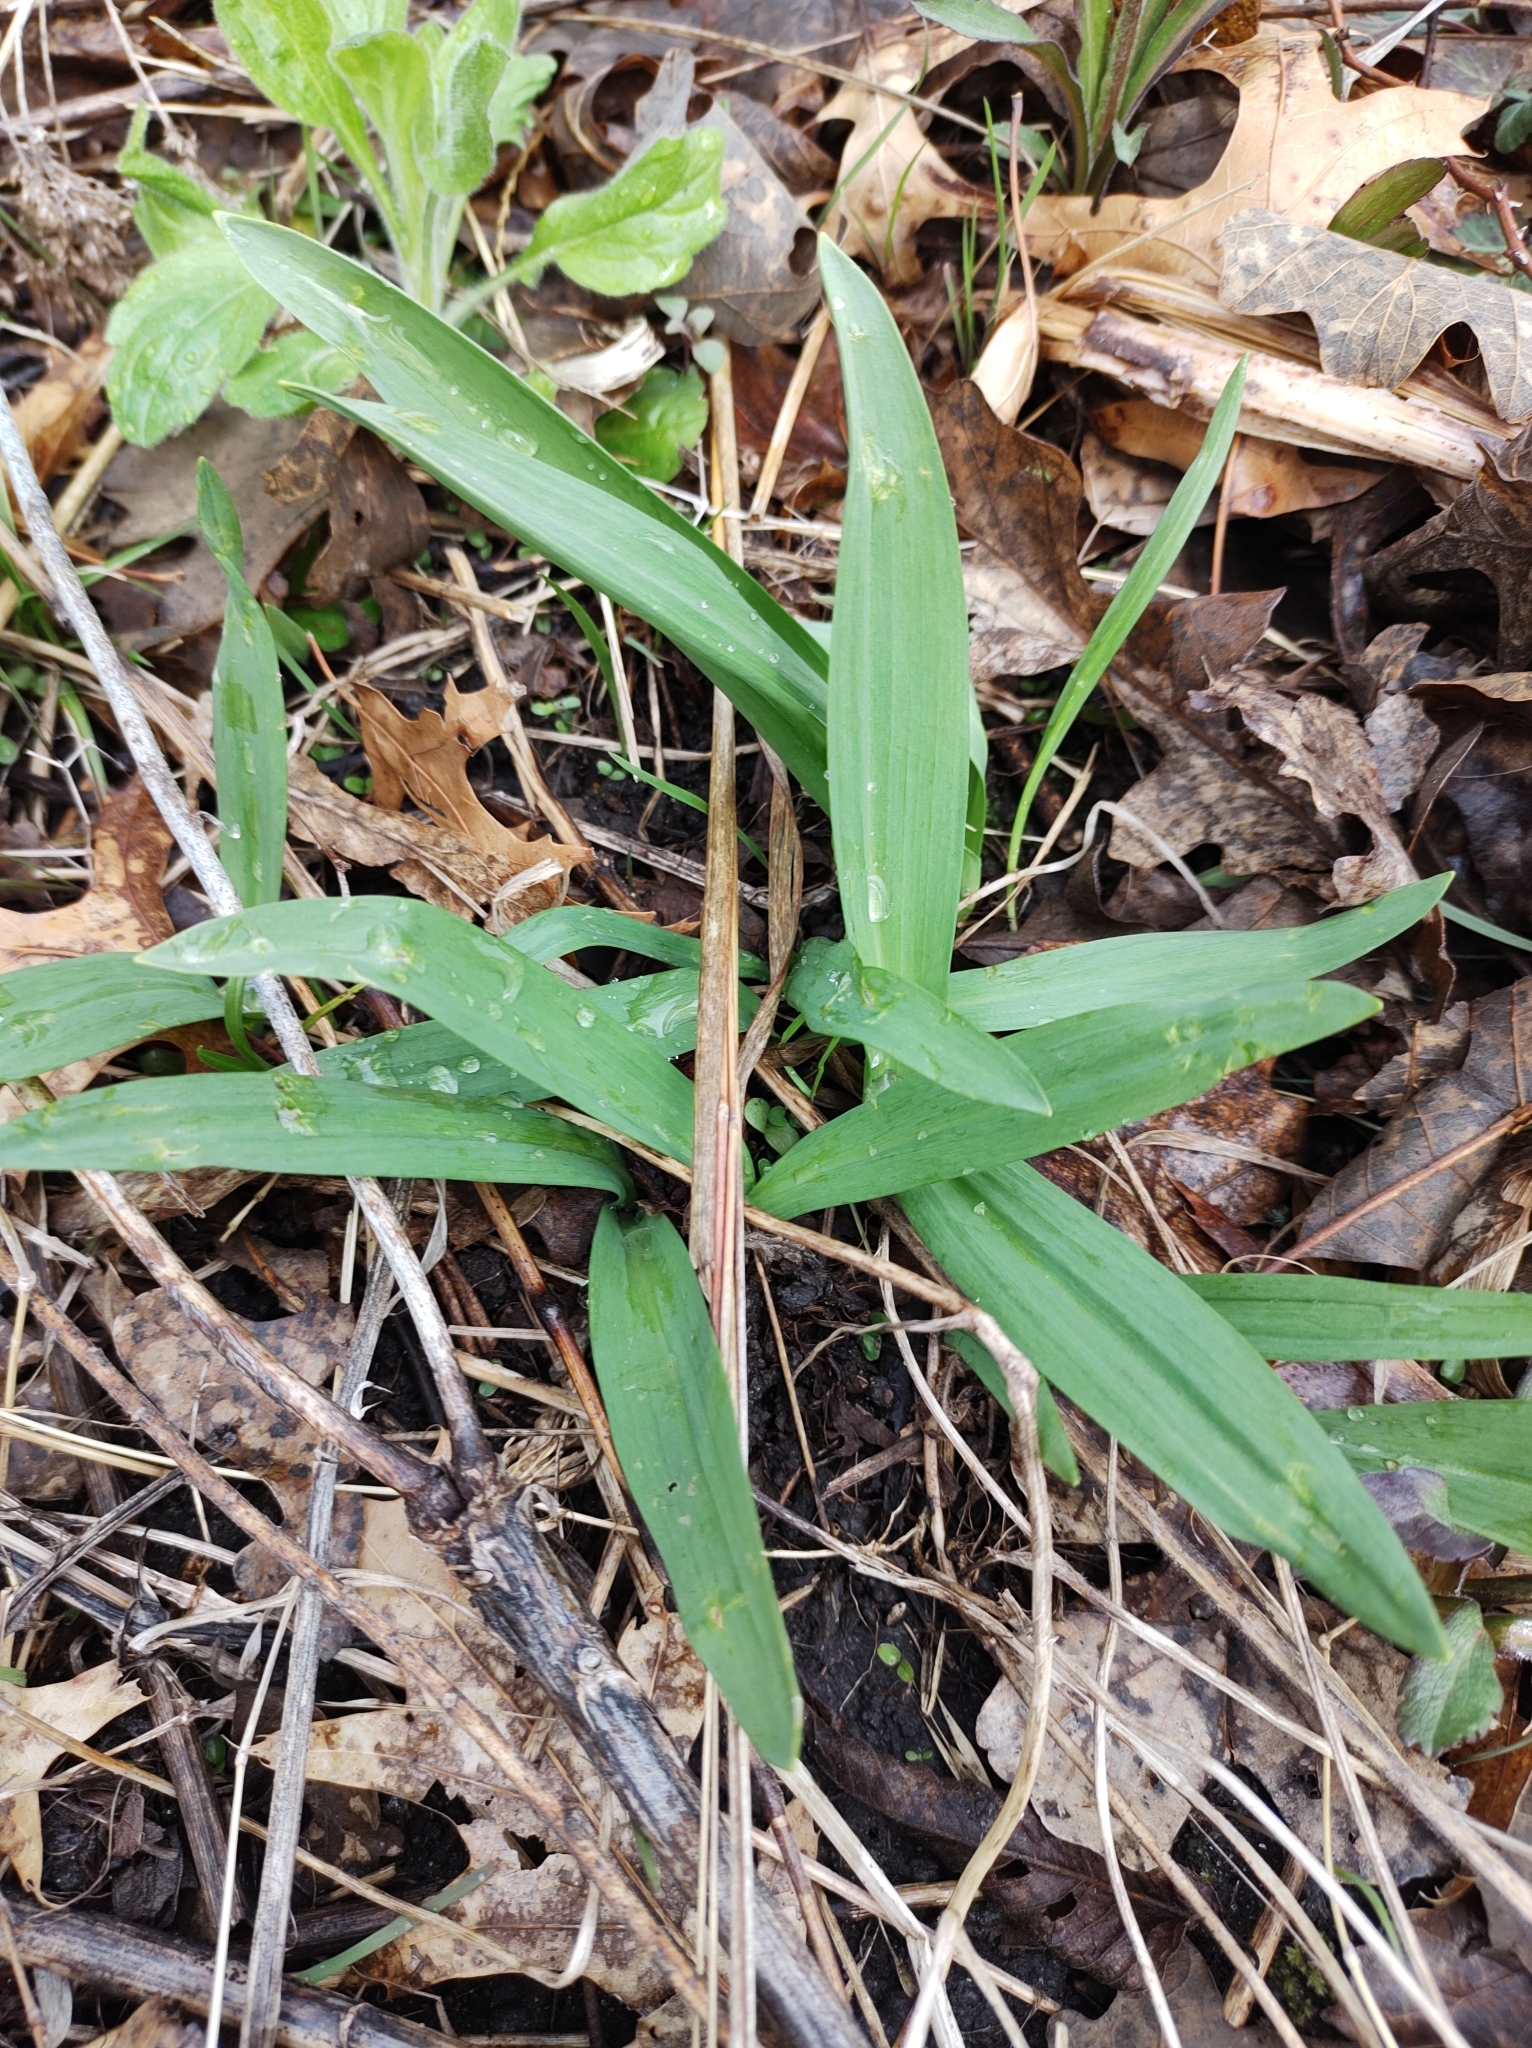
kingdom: Plantae
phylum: Tracheophyta
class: Liliopsida
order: Asparagales
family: Amaryllidaceae
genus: Allium
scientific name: Allium tricoccum
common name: Ramp
